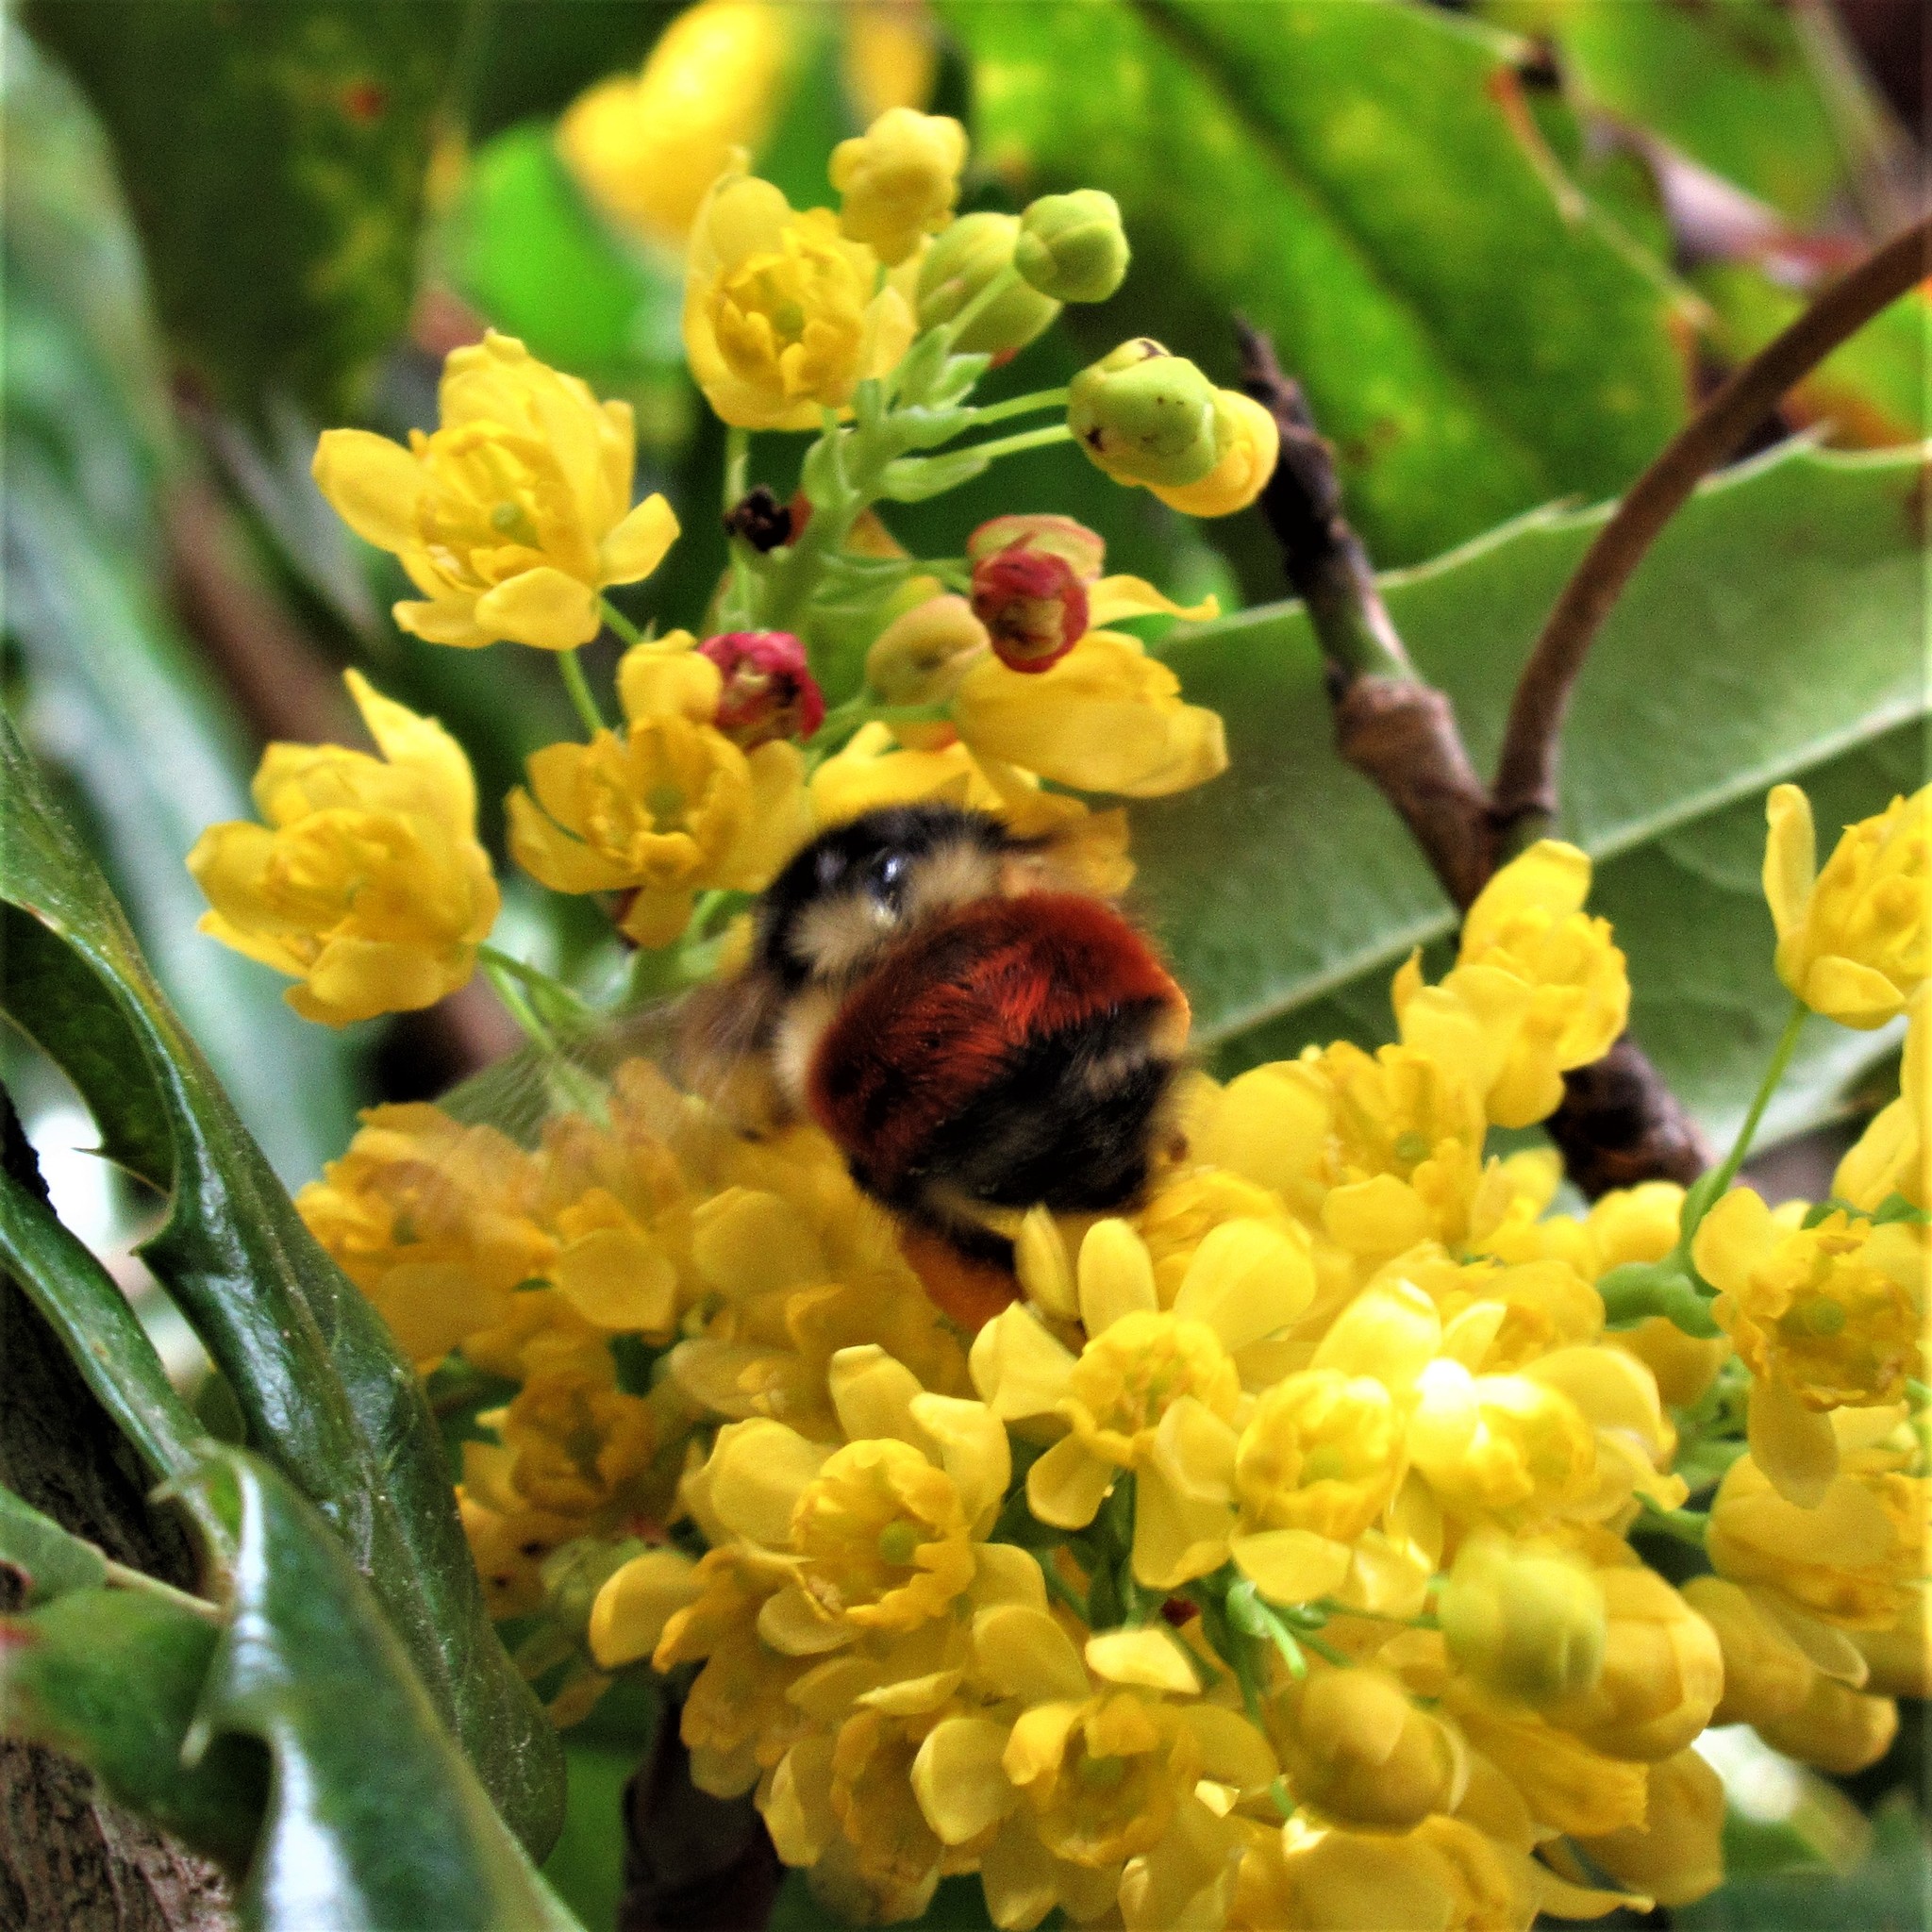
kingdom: Animalia
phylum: Arthropoda
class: Insecta
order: Hymenoptera
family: Apidae
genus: Bombus
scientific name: Bombus melanopygus
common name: Black tail bumble bee
